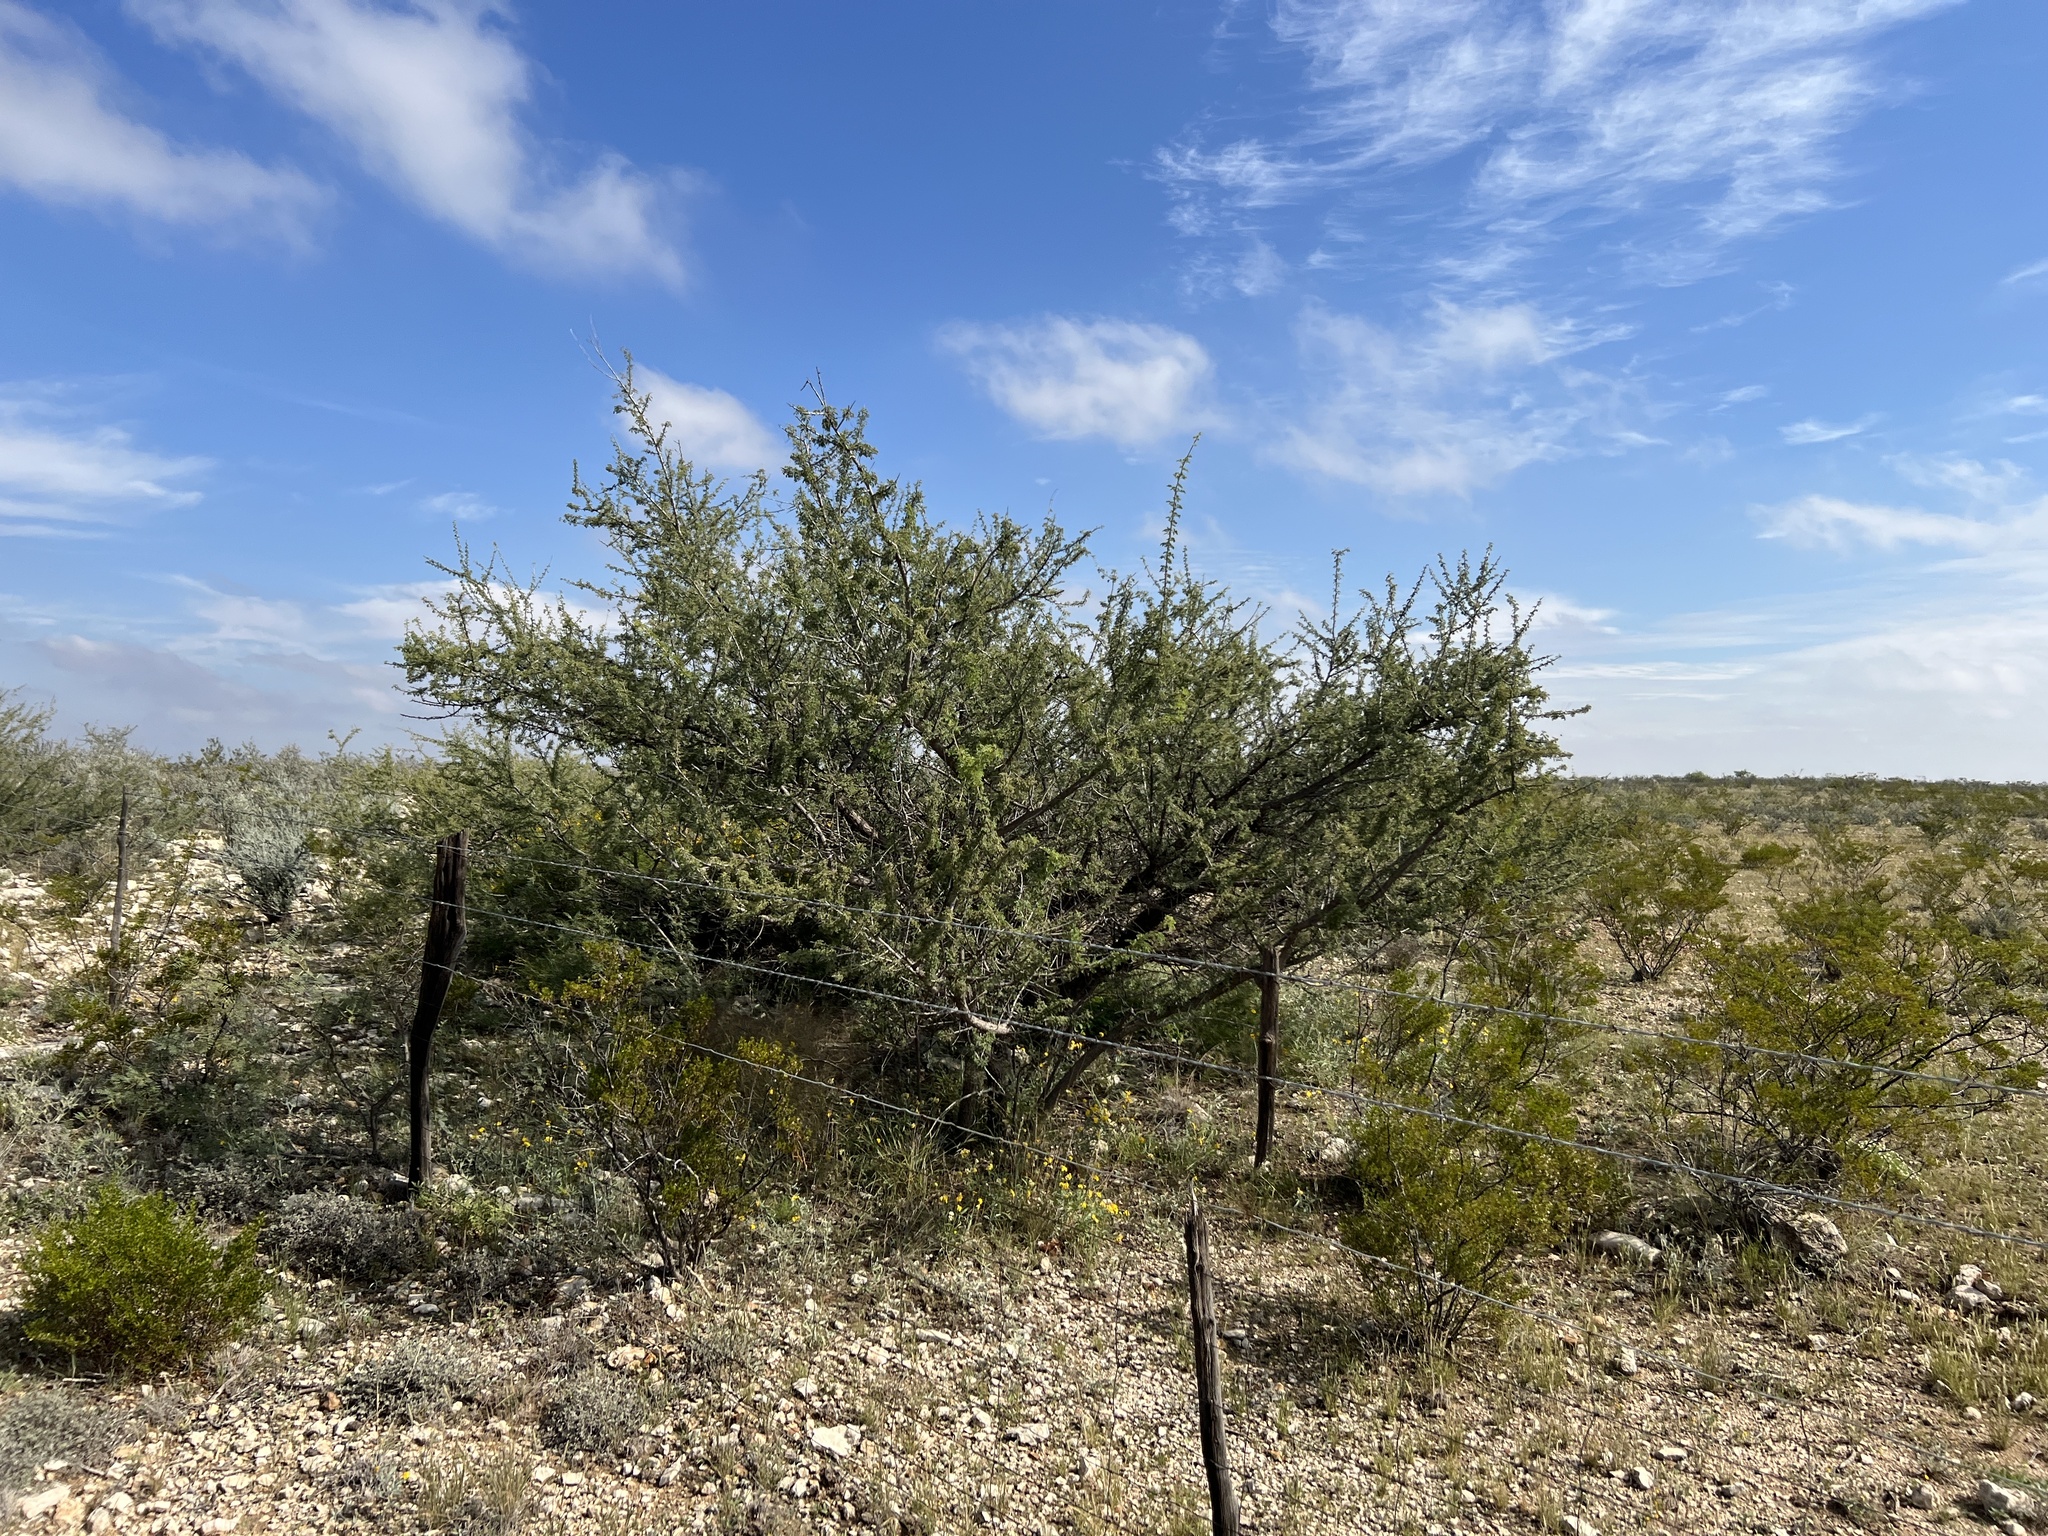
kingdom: Plantae
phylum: Tracheophyta
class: Magnoliopsida
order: Fabales
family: Fabaceae
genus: Senegalia
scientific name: Senegalia greggii
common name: Texas-mimosa
